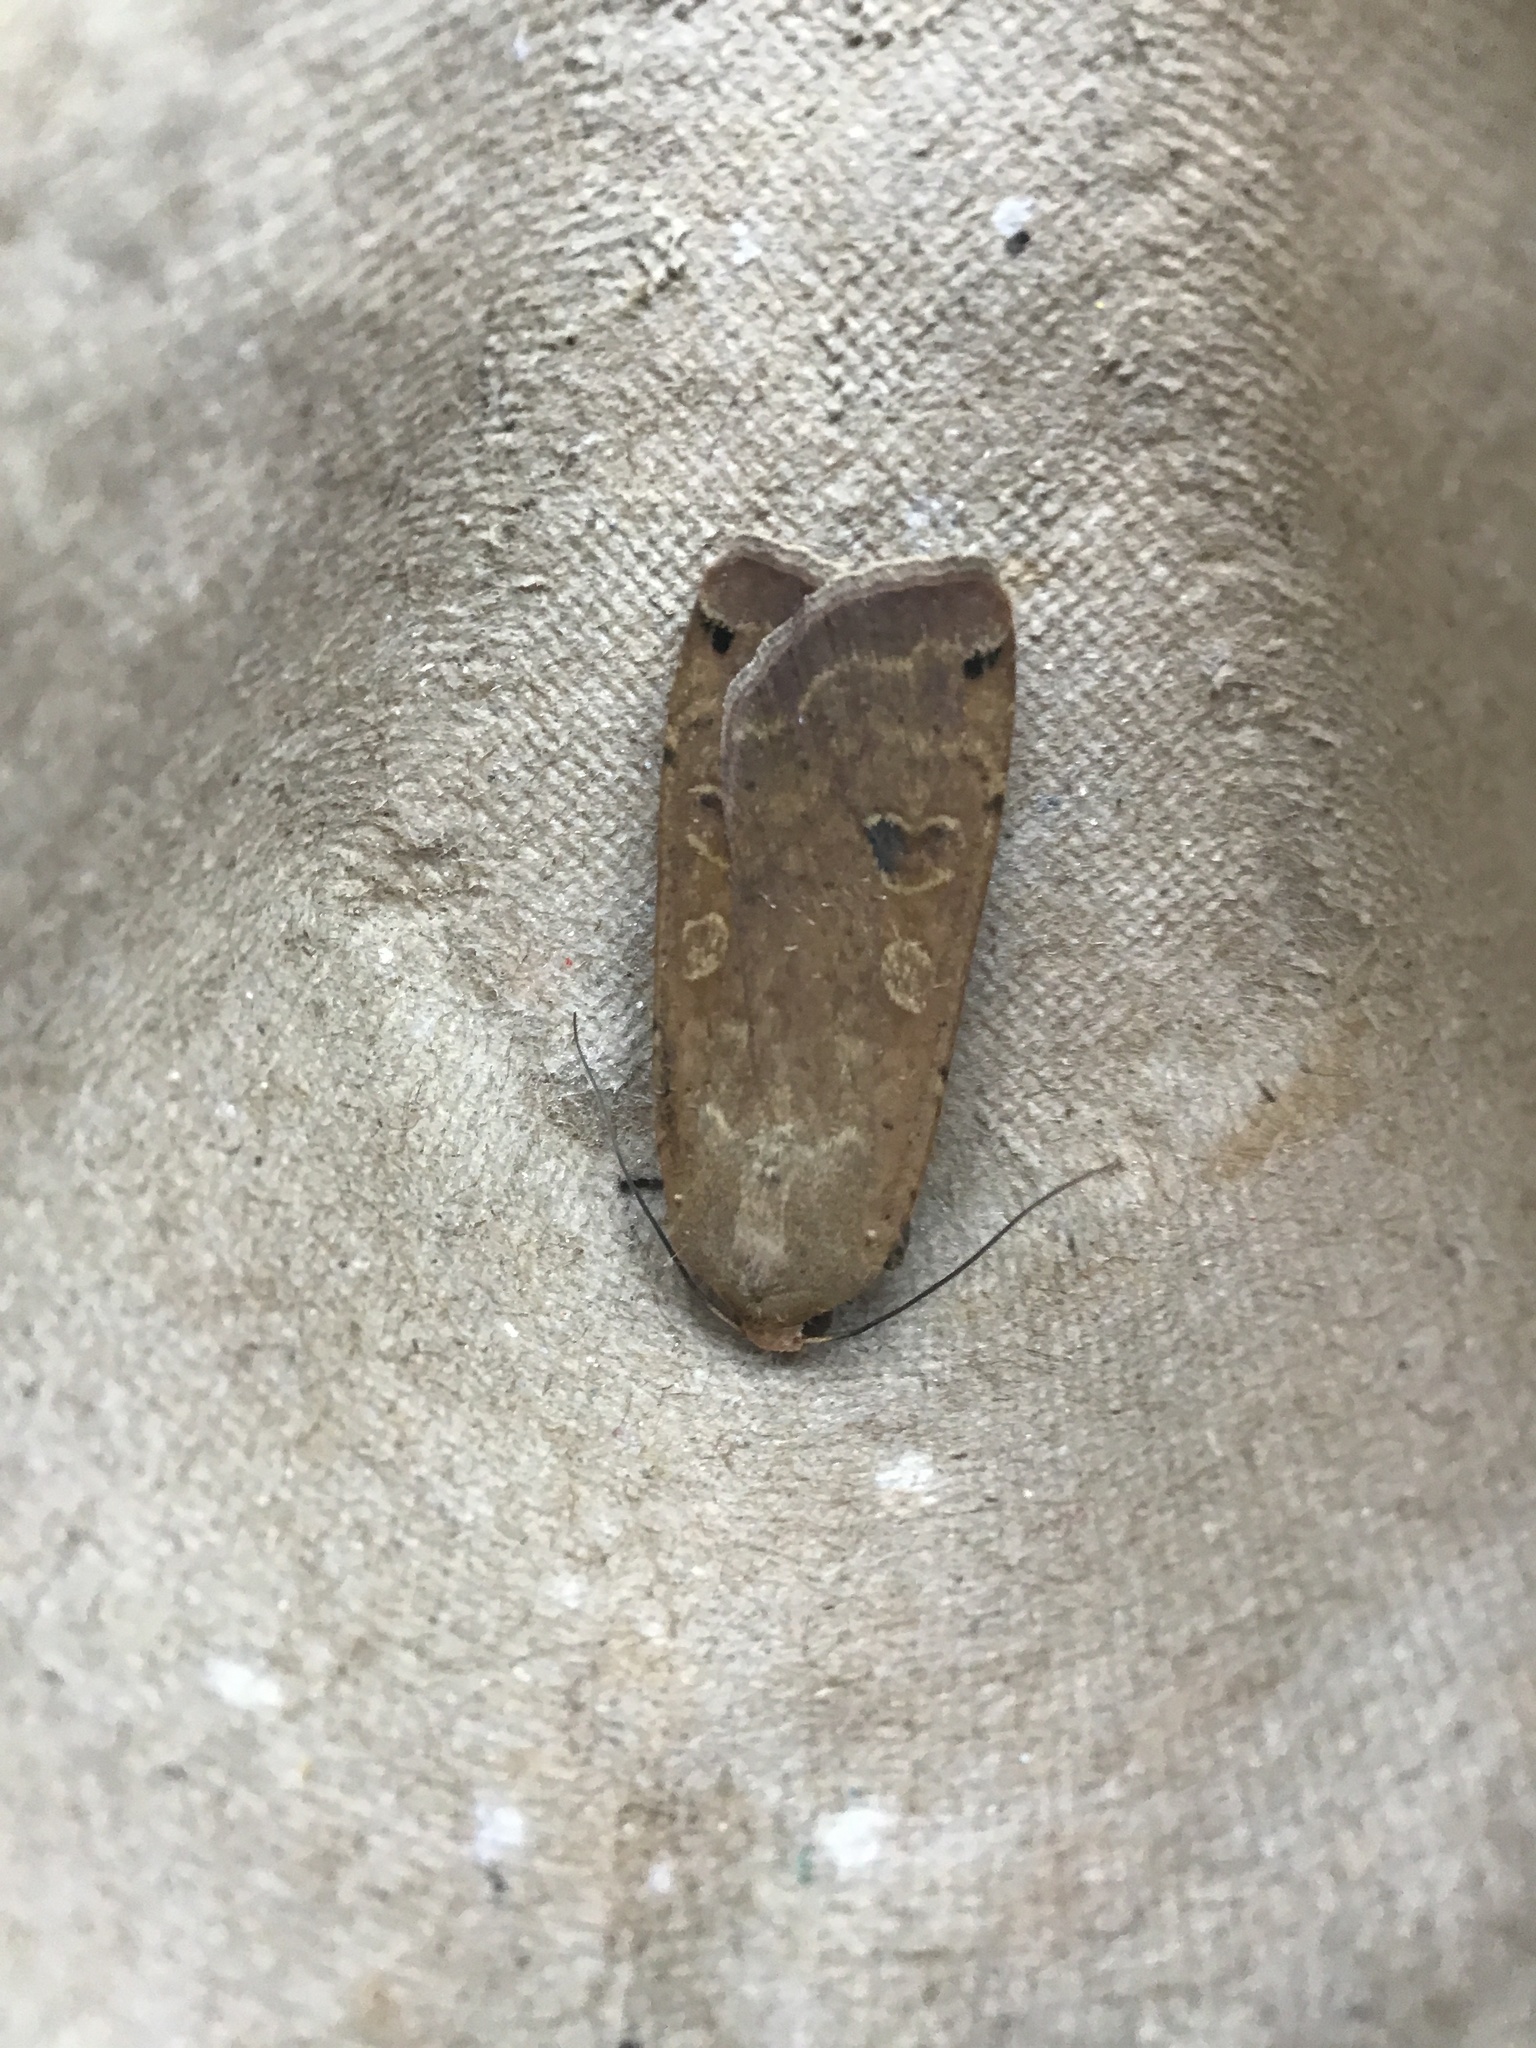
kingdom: Animalia
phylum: Arthropoda
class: Insecta
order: Lepidoptera
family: Noctuidae
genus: Noctua
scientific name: Noctua pronuba
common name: Large yellow underwing
